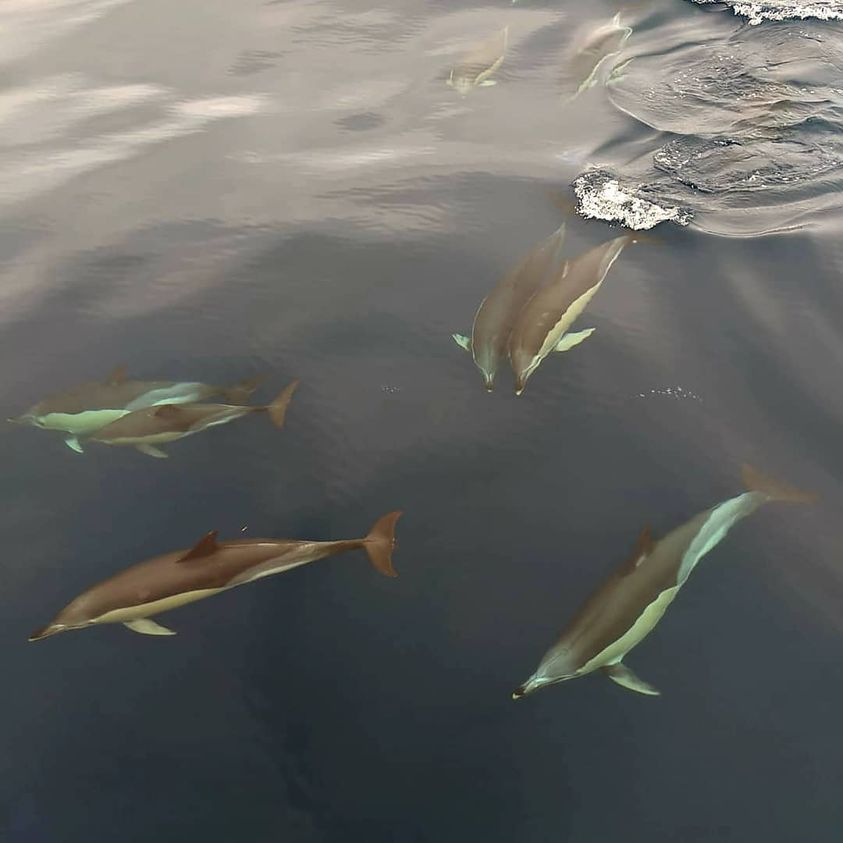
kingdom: Animalia
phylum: Chordata
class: Mammalia
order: Cetacea
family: Delphinidae
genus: Delphinus
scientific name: Delphinus delphis
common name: Common dolphin
